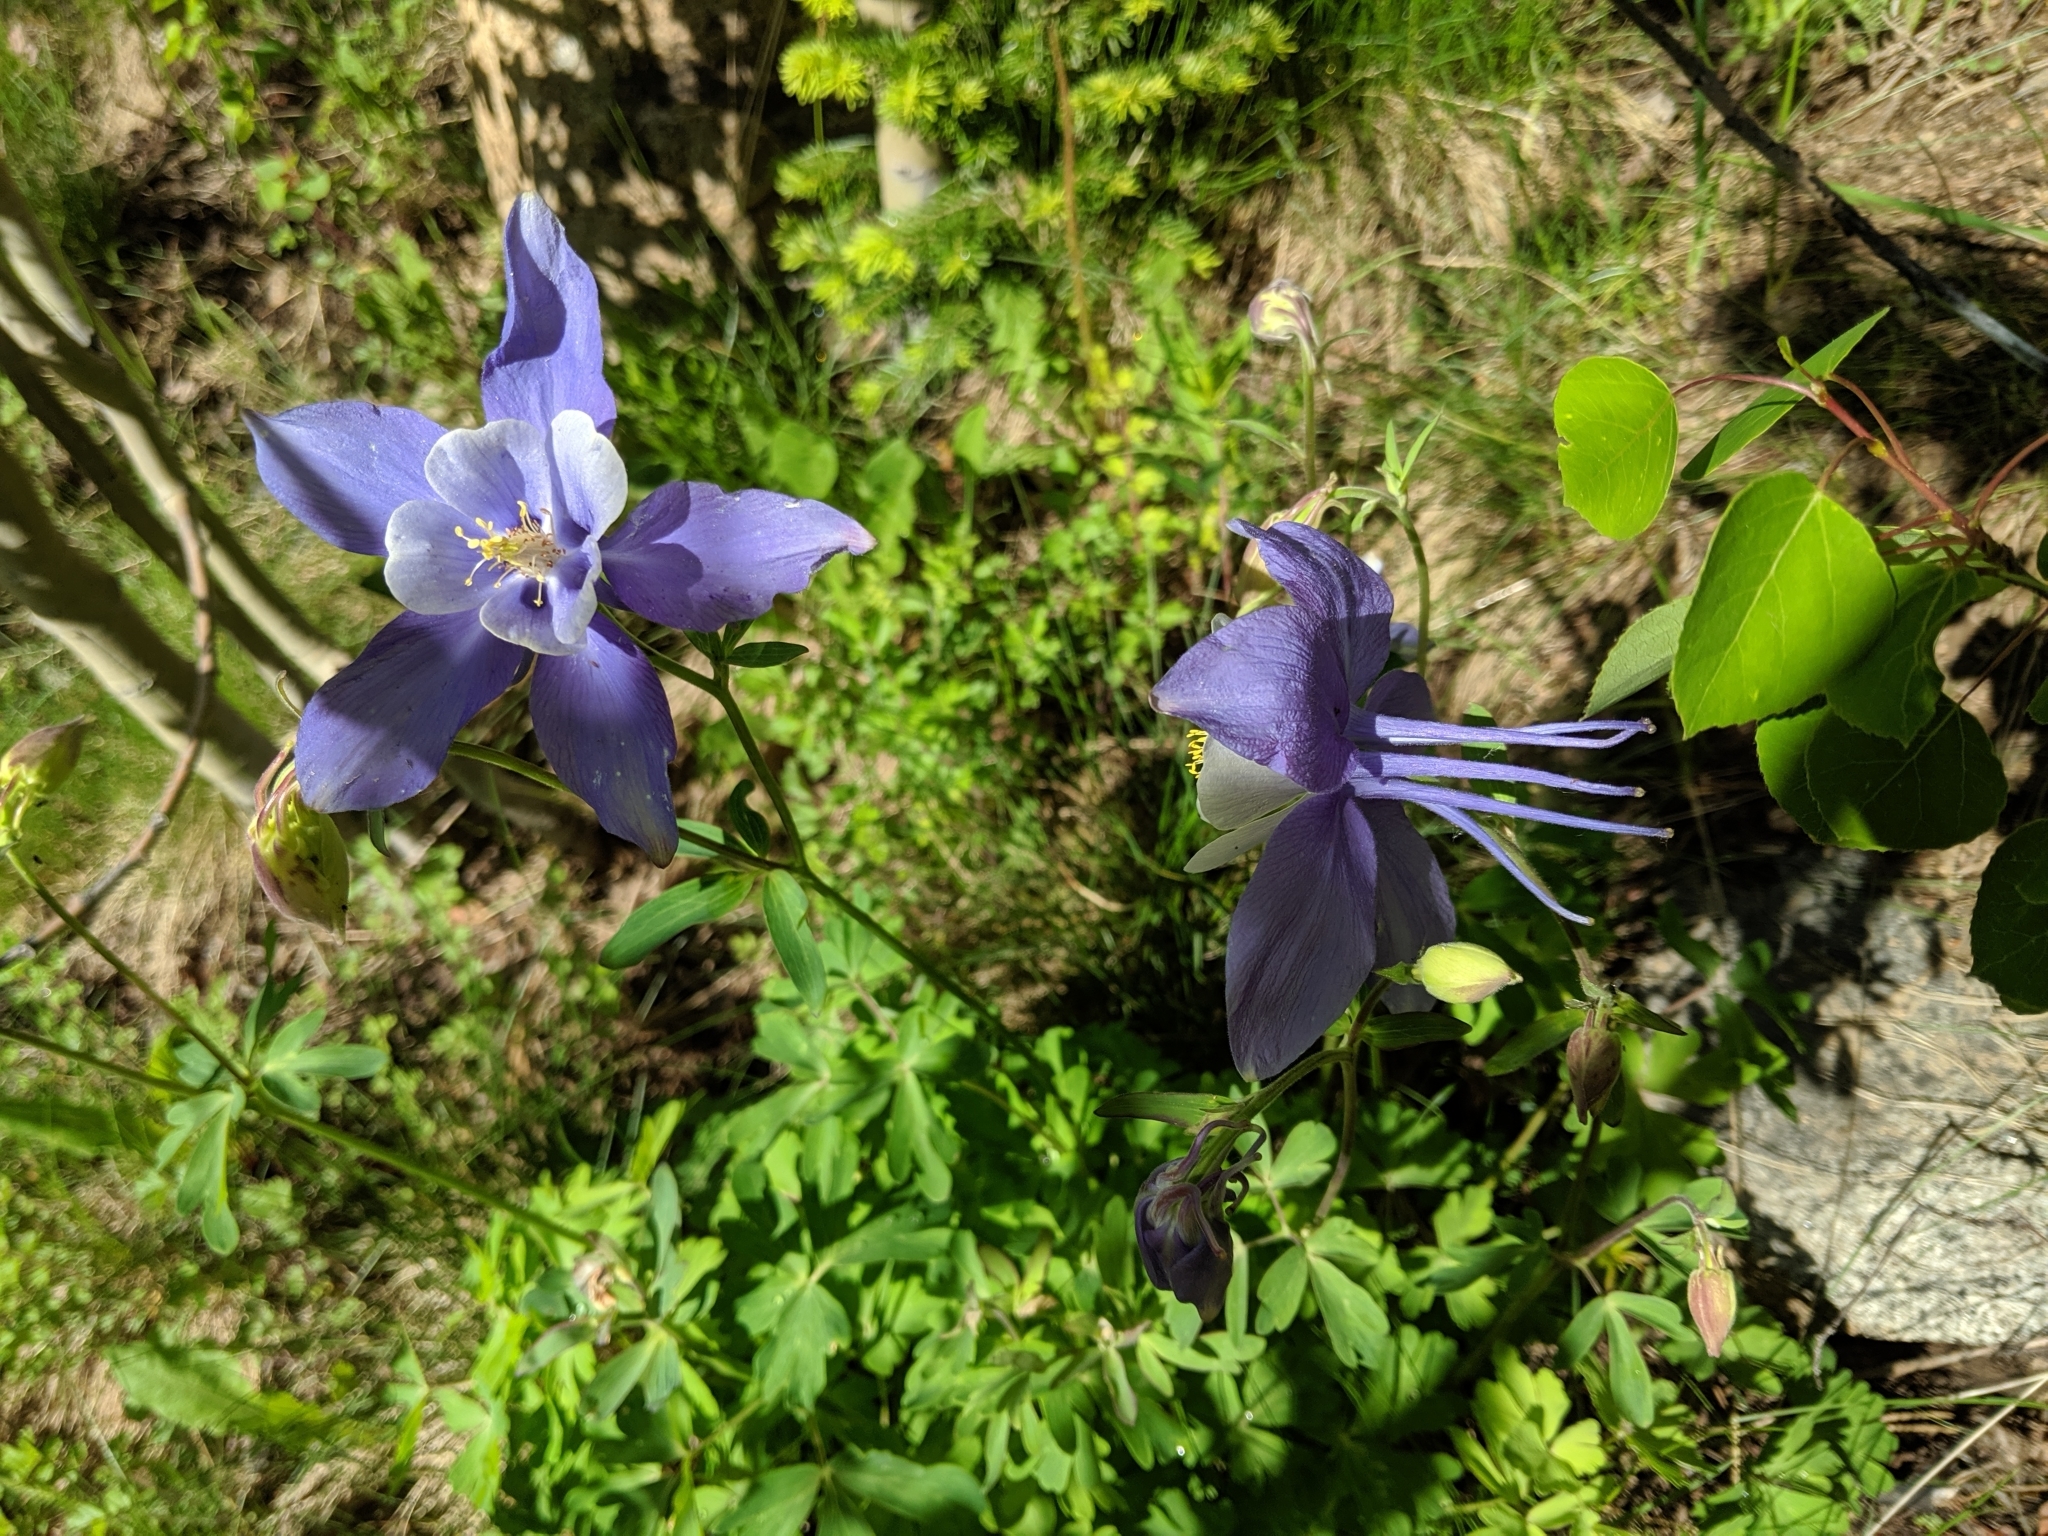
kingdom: Plantae
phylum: Tracheophyta
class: Magnoliopsida
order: Ranunculales
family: Ranunculaceae
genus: Aquilegia
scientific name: Aquilegia coerulea
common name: Rocky mountain columbine
